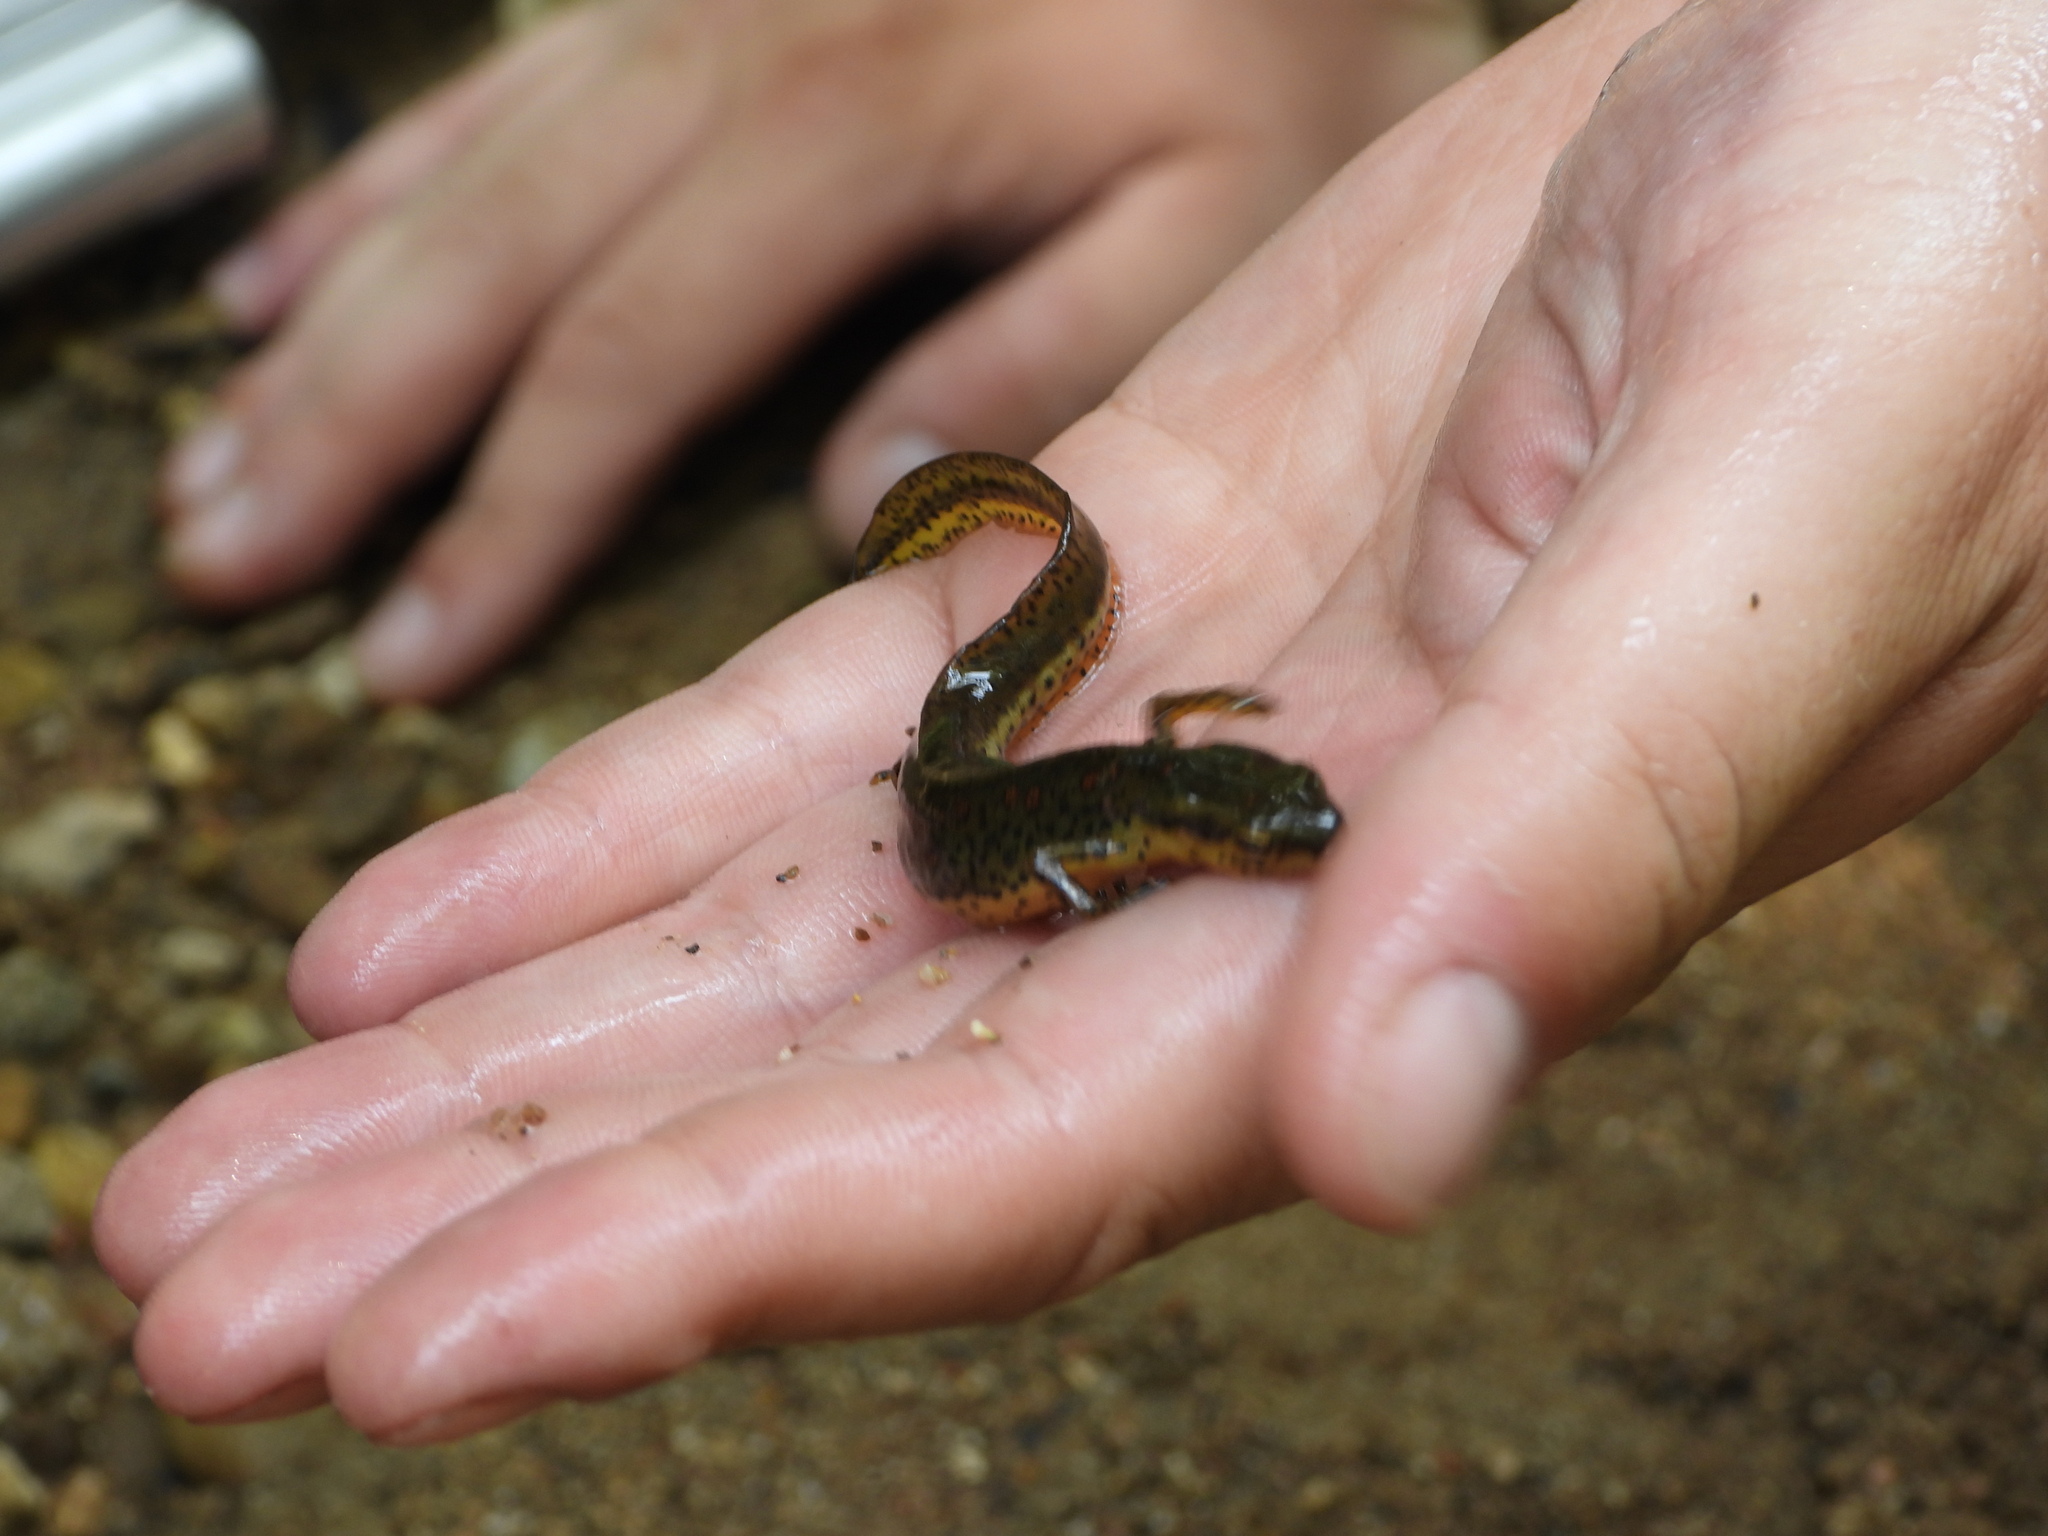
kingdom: Animalia
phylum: Chordata
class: Amphibia
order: Caudata
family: Salamandridae
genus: Notophthalmus
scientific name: Notophthalmus viridescens
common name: Eastern newt
